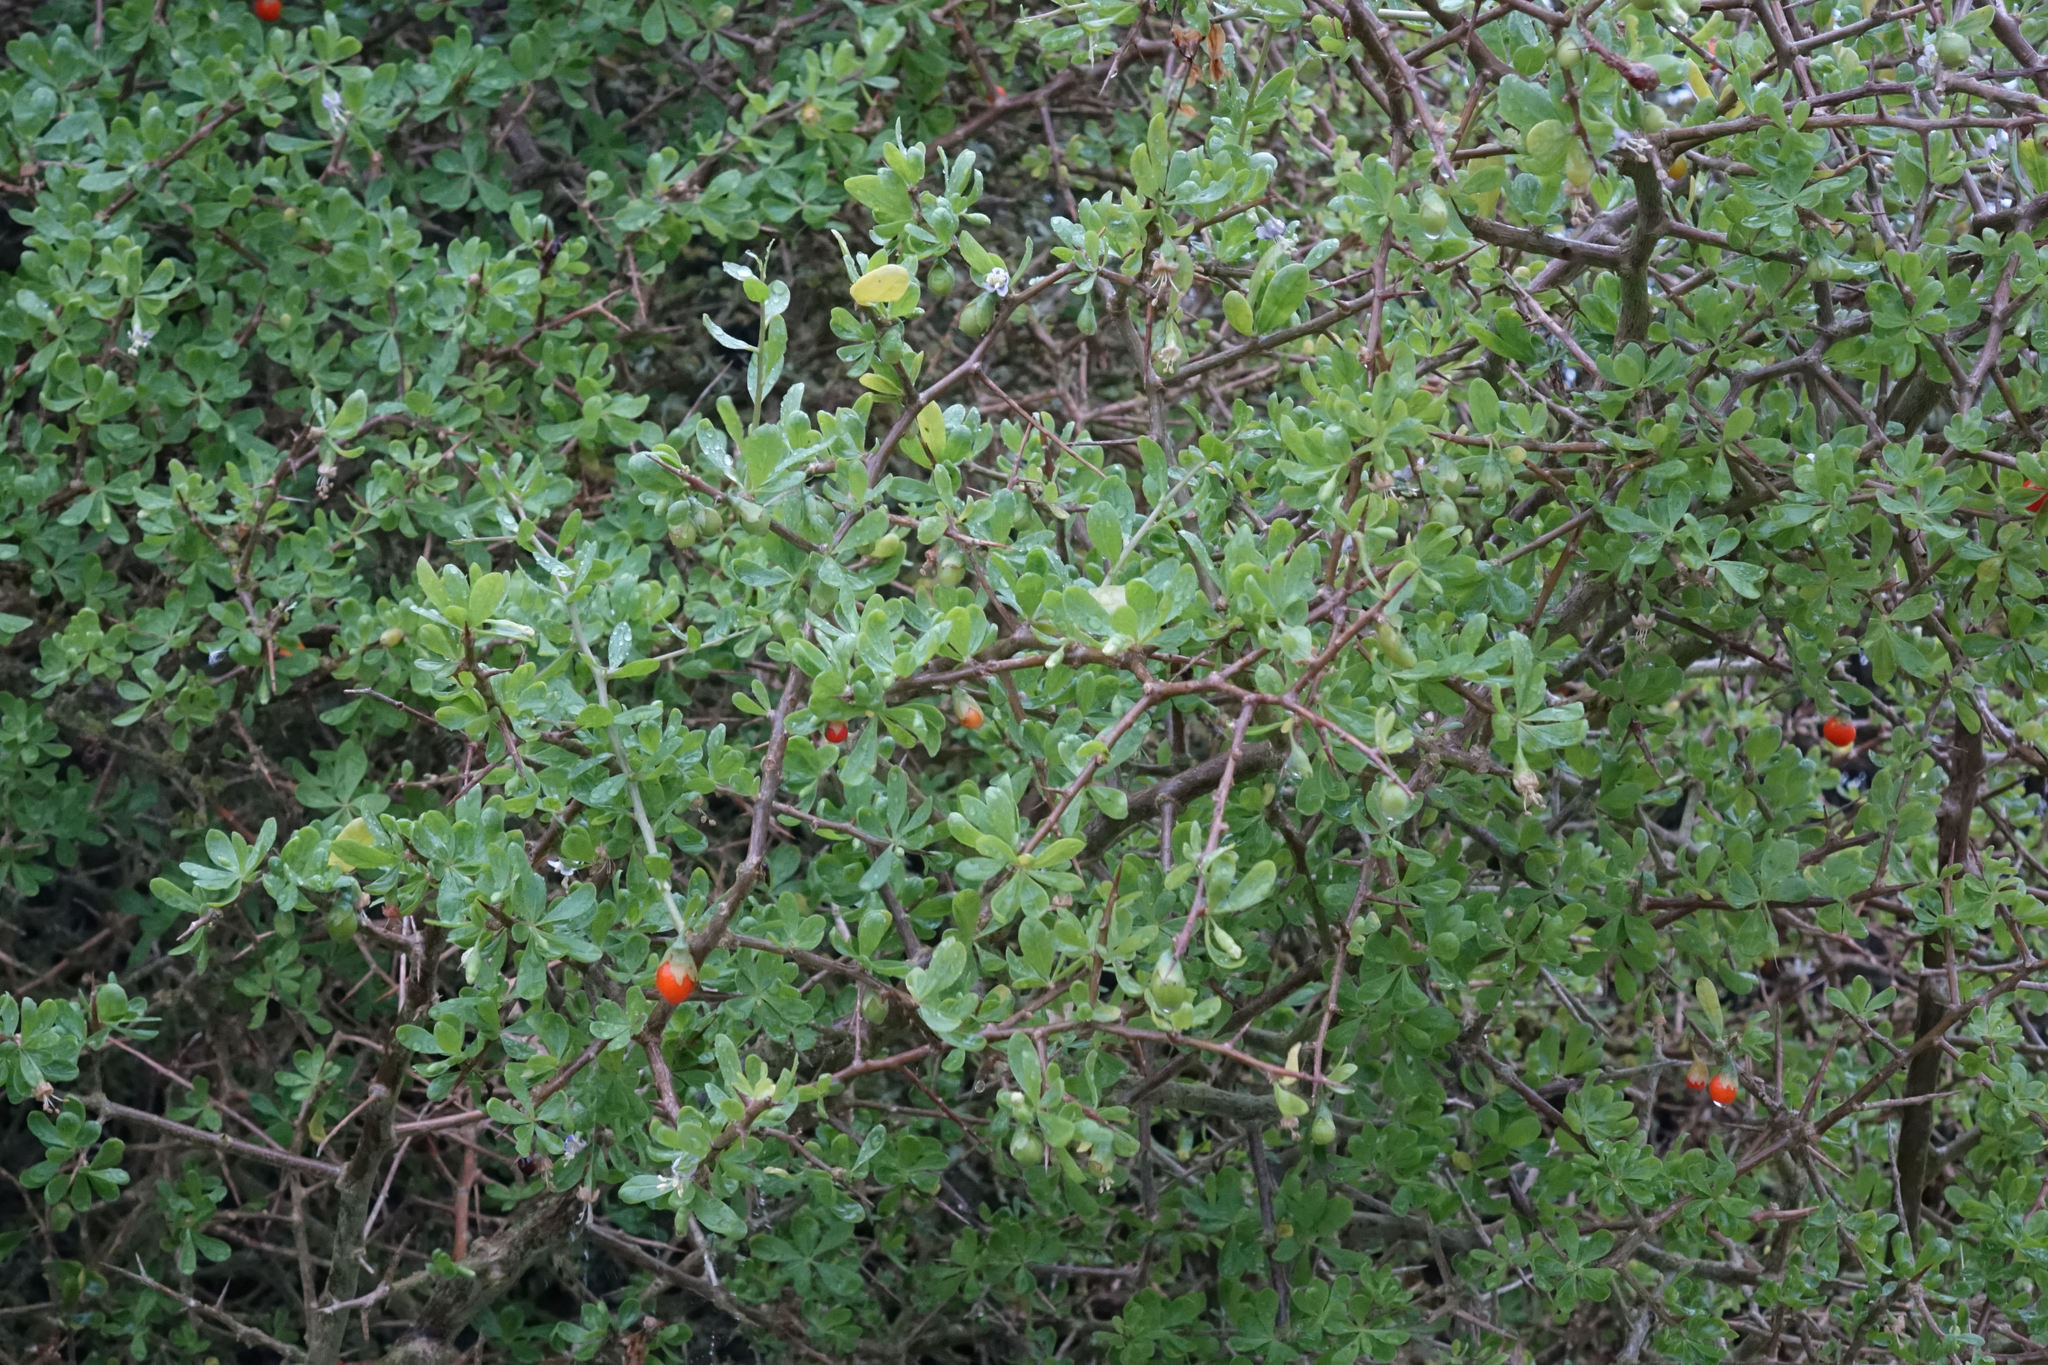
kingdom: Plantae
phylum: Tracheophyta
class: Magnoliopsida
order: Solanales
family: Solanaceae
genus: Lycium
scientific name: Lycium ferocissimum
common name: African boxthorn
